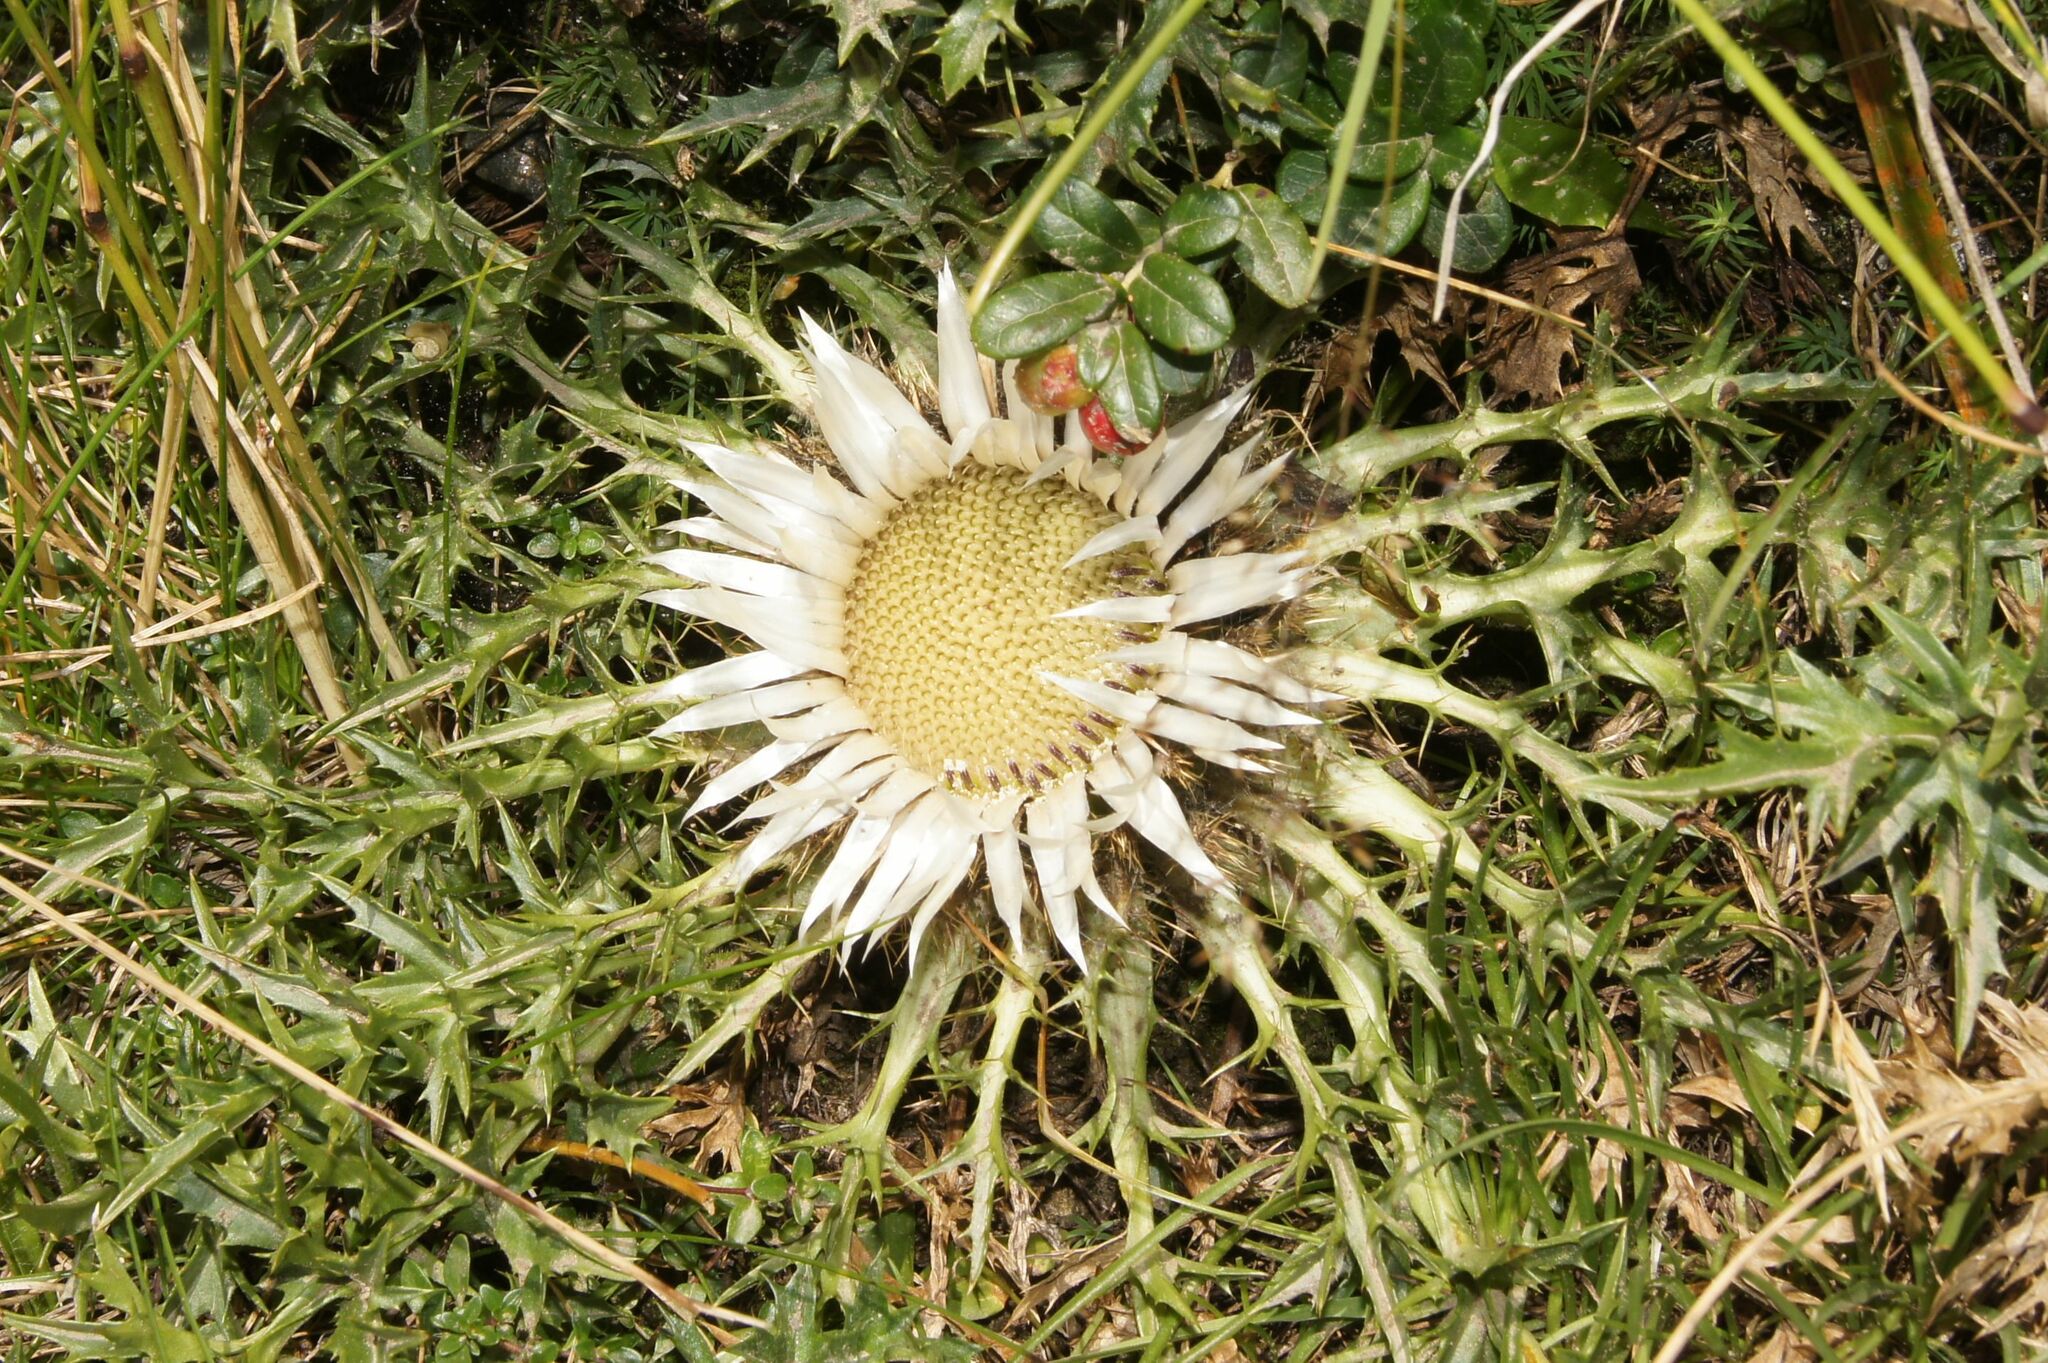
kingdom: Plantae
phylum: Tracheophyta
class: Magnoliopsida
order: Asterales
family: Asteraceae
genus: Carlina
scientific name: Carlina acaulis
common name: Stemless carline thistle
